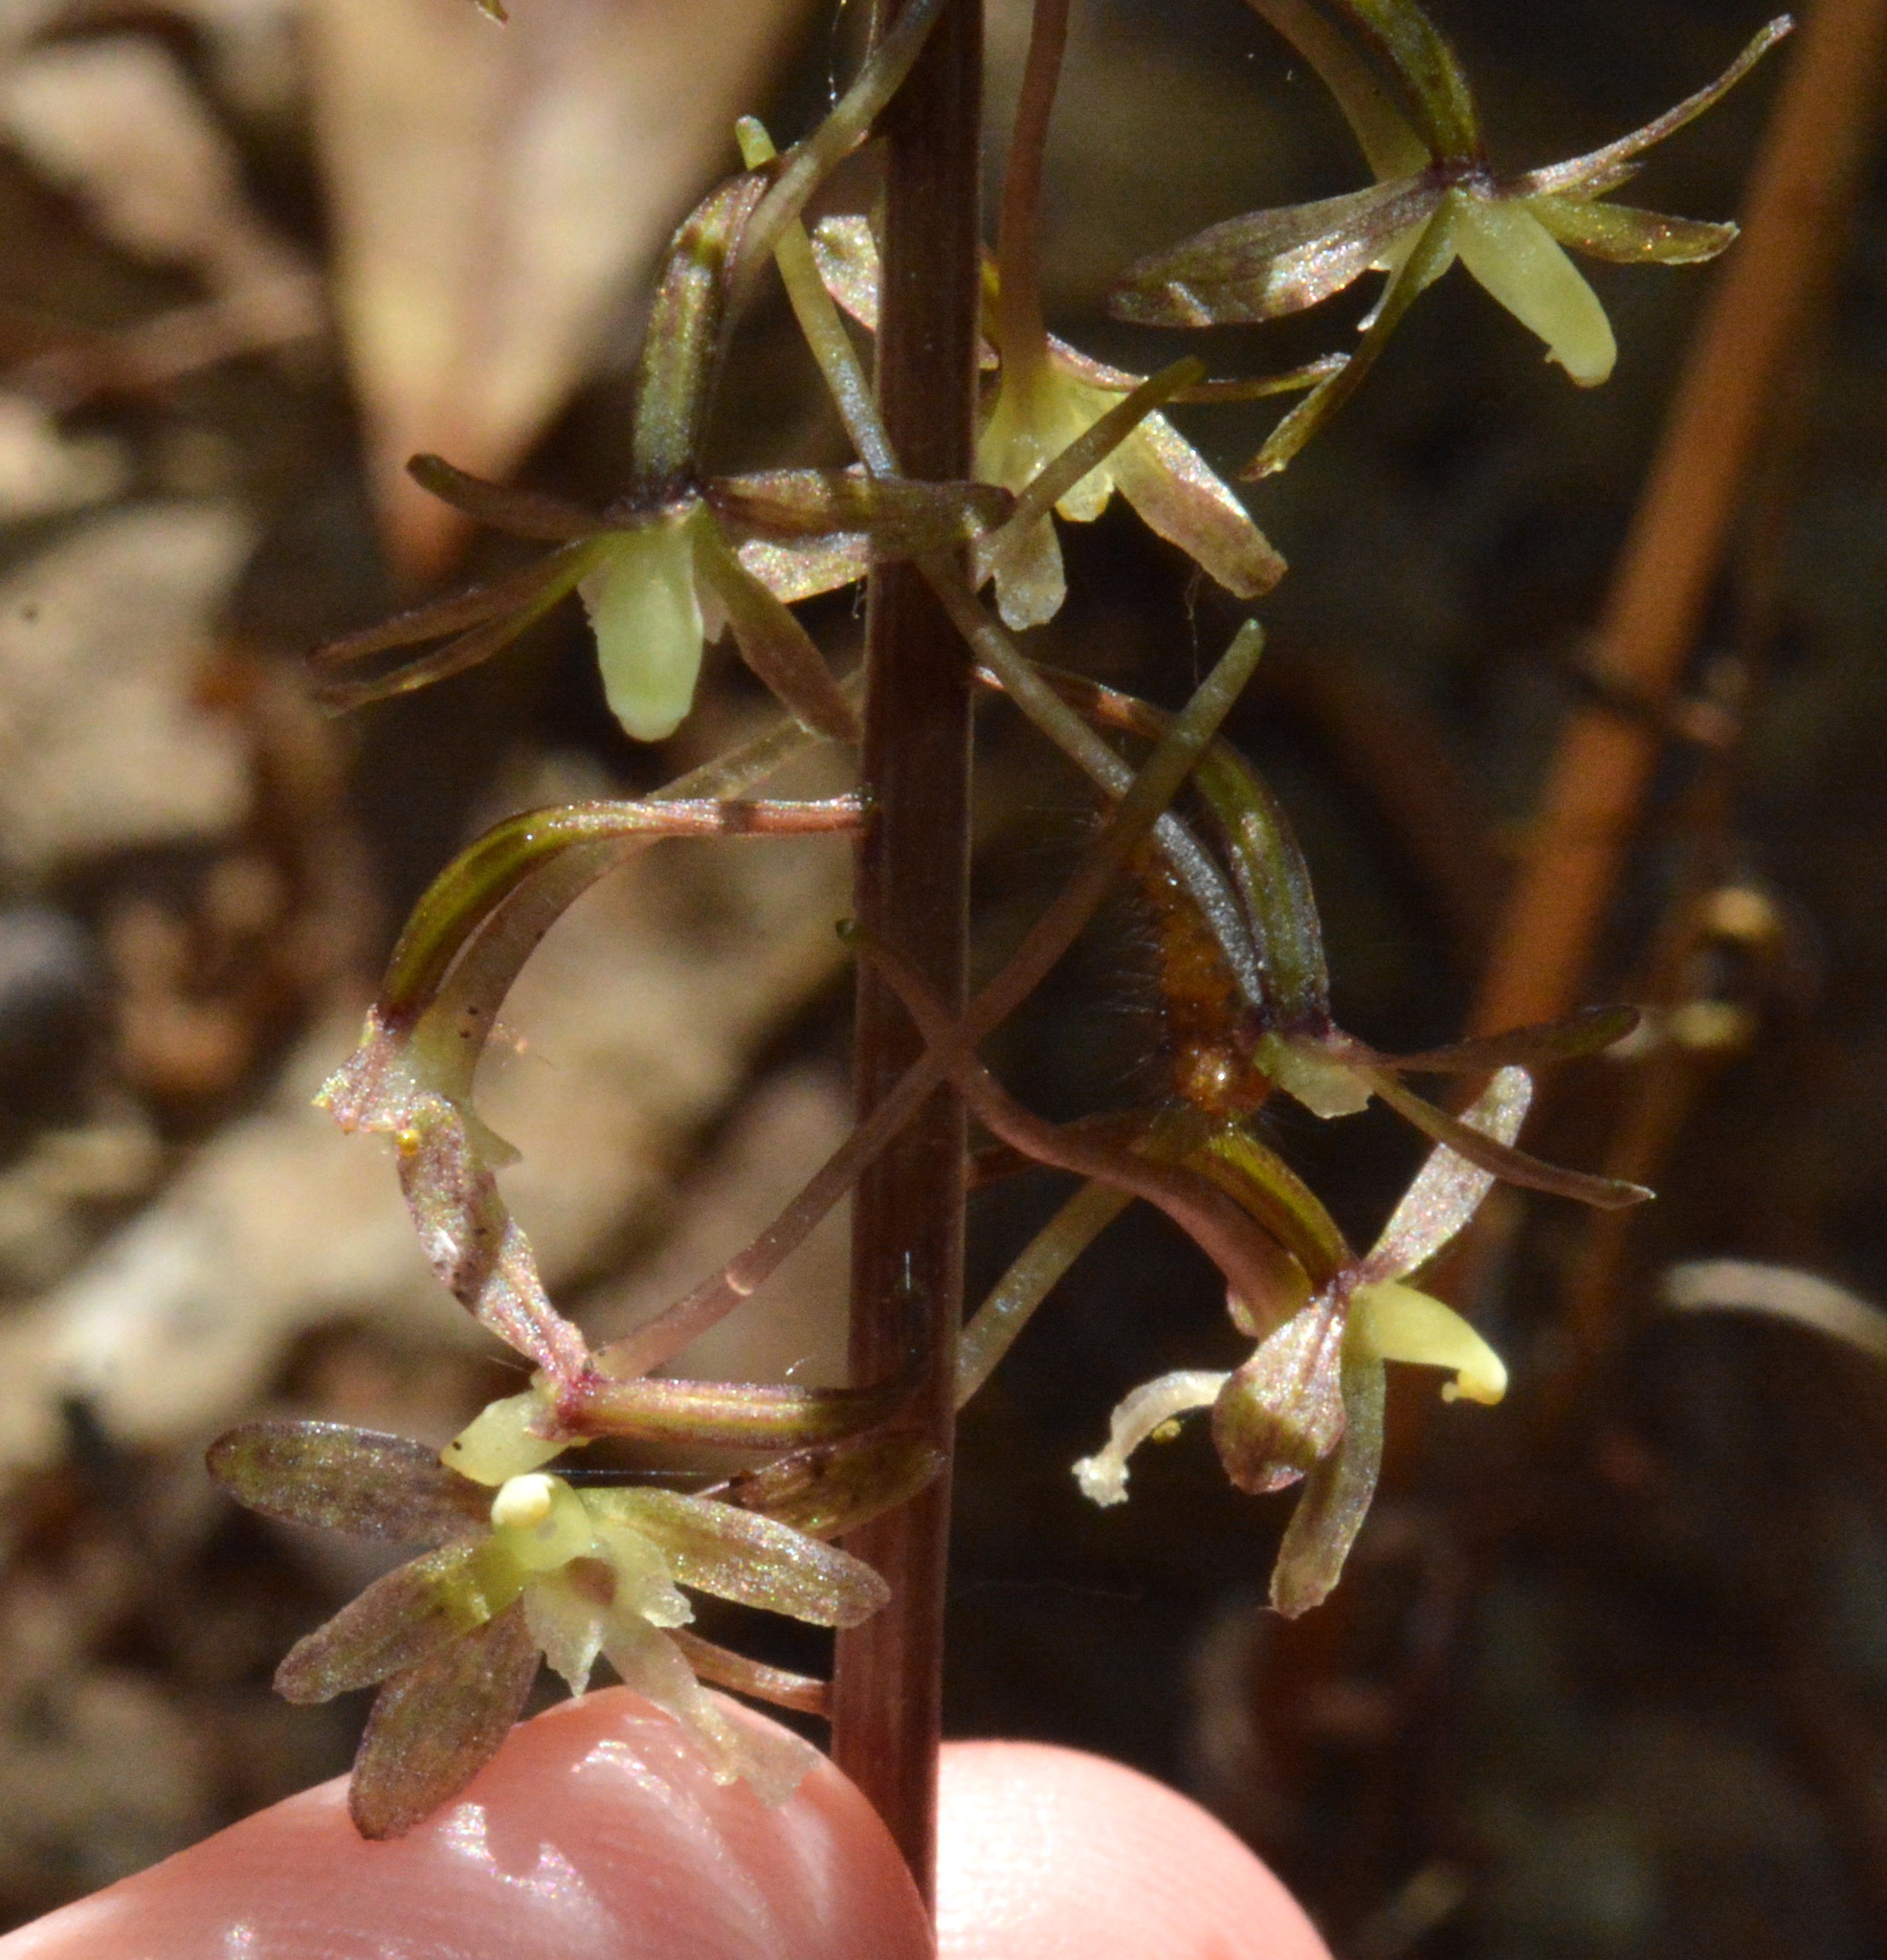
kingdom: Plantae
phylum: Tracheophyta
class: Liliopsida
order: Asparagales
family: Orchidaceae
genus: Tipularia
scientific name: Tipularia discolor
